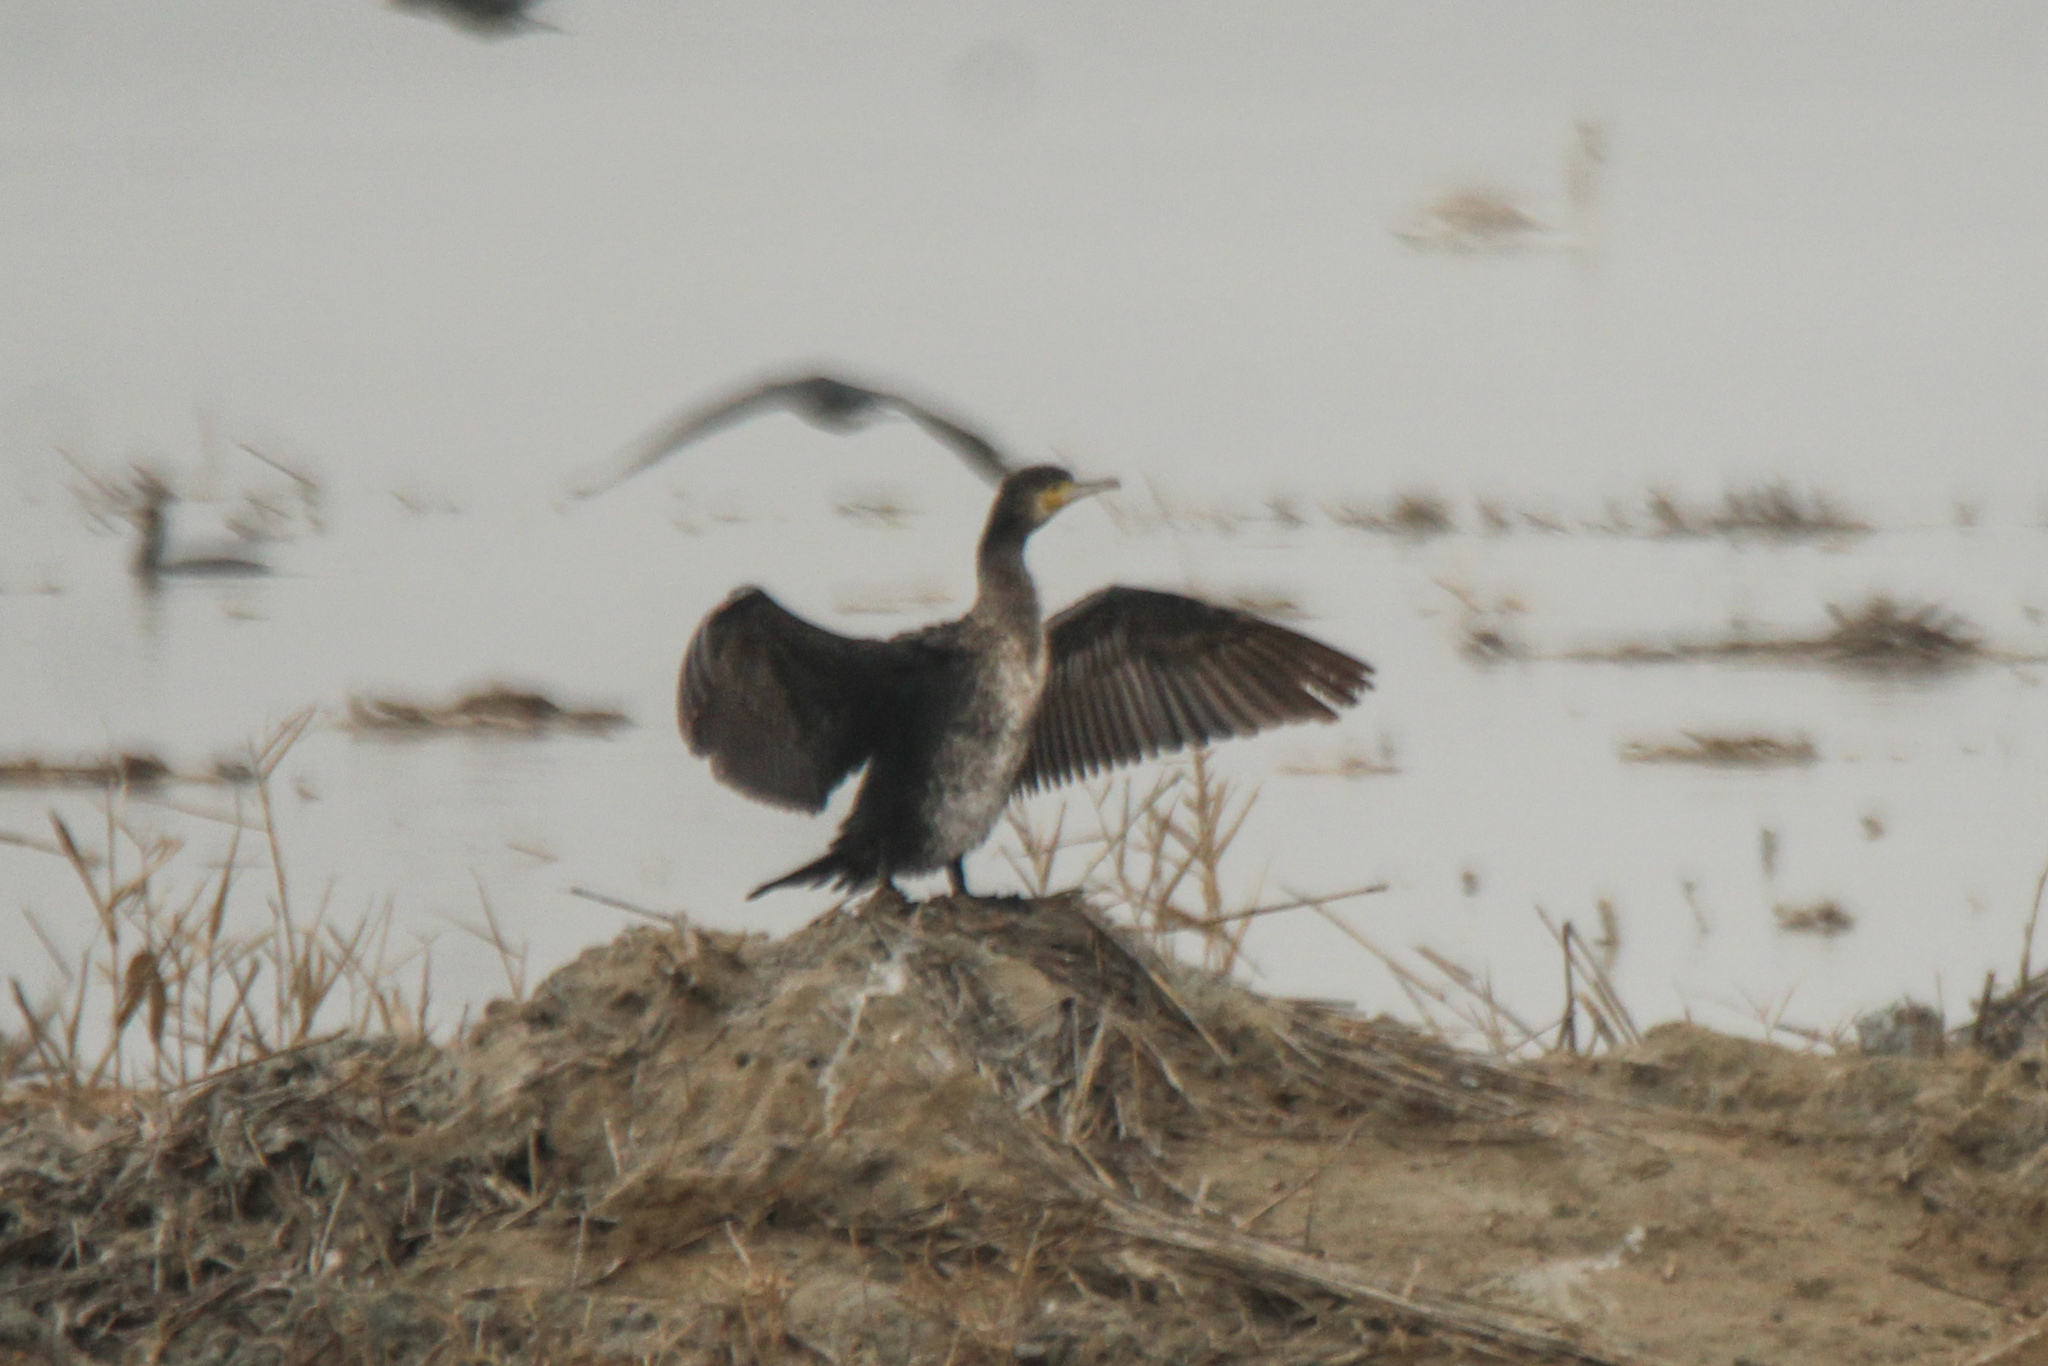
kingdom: Animalia
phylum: Chordata
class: Aves
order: Suliformes
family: Phalacrocoracidae
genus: Phalacrocorax
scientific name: Phalacrocorax carbo
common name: Great cormorant
